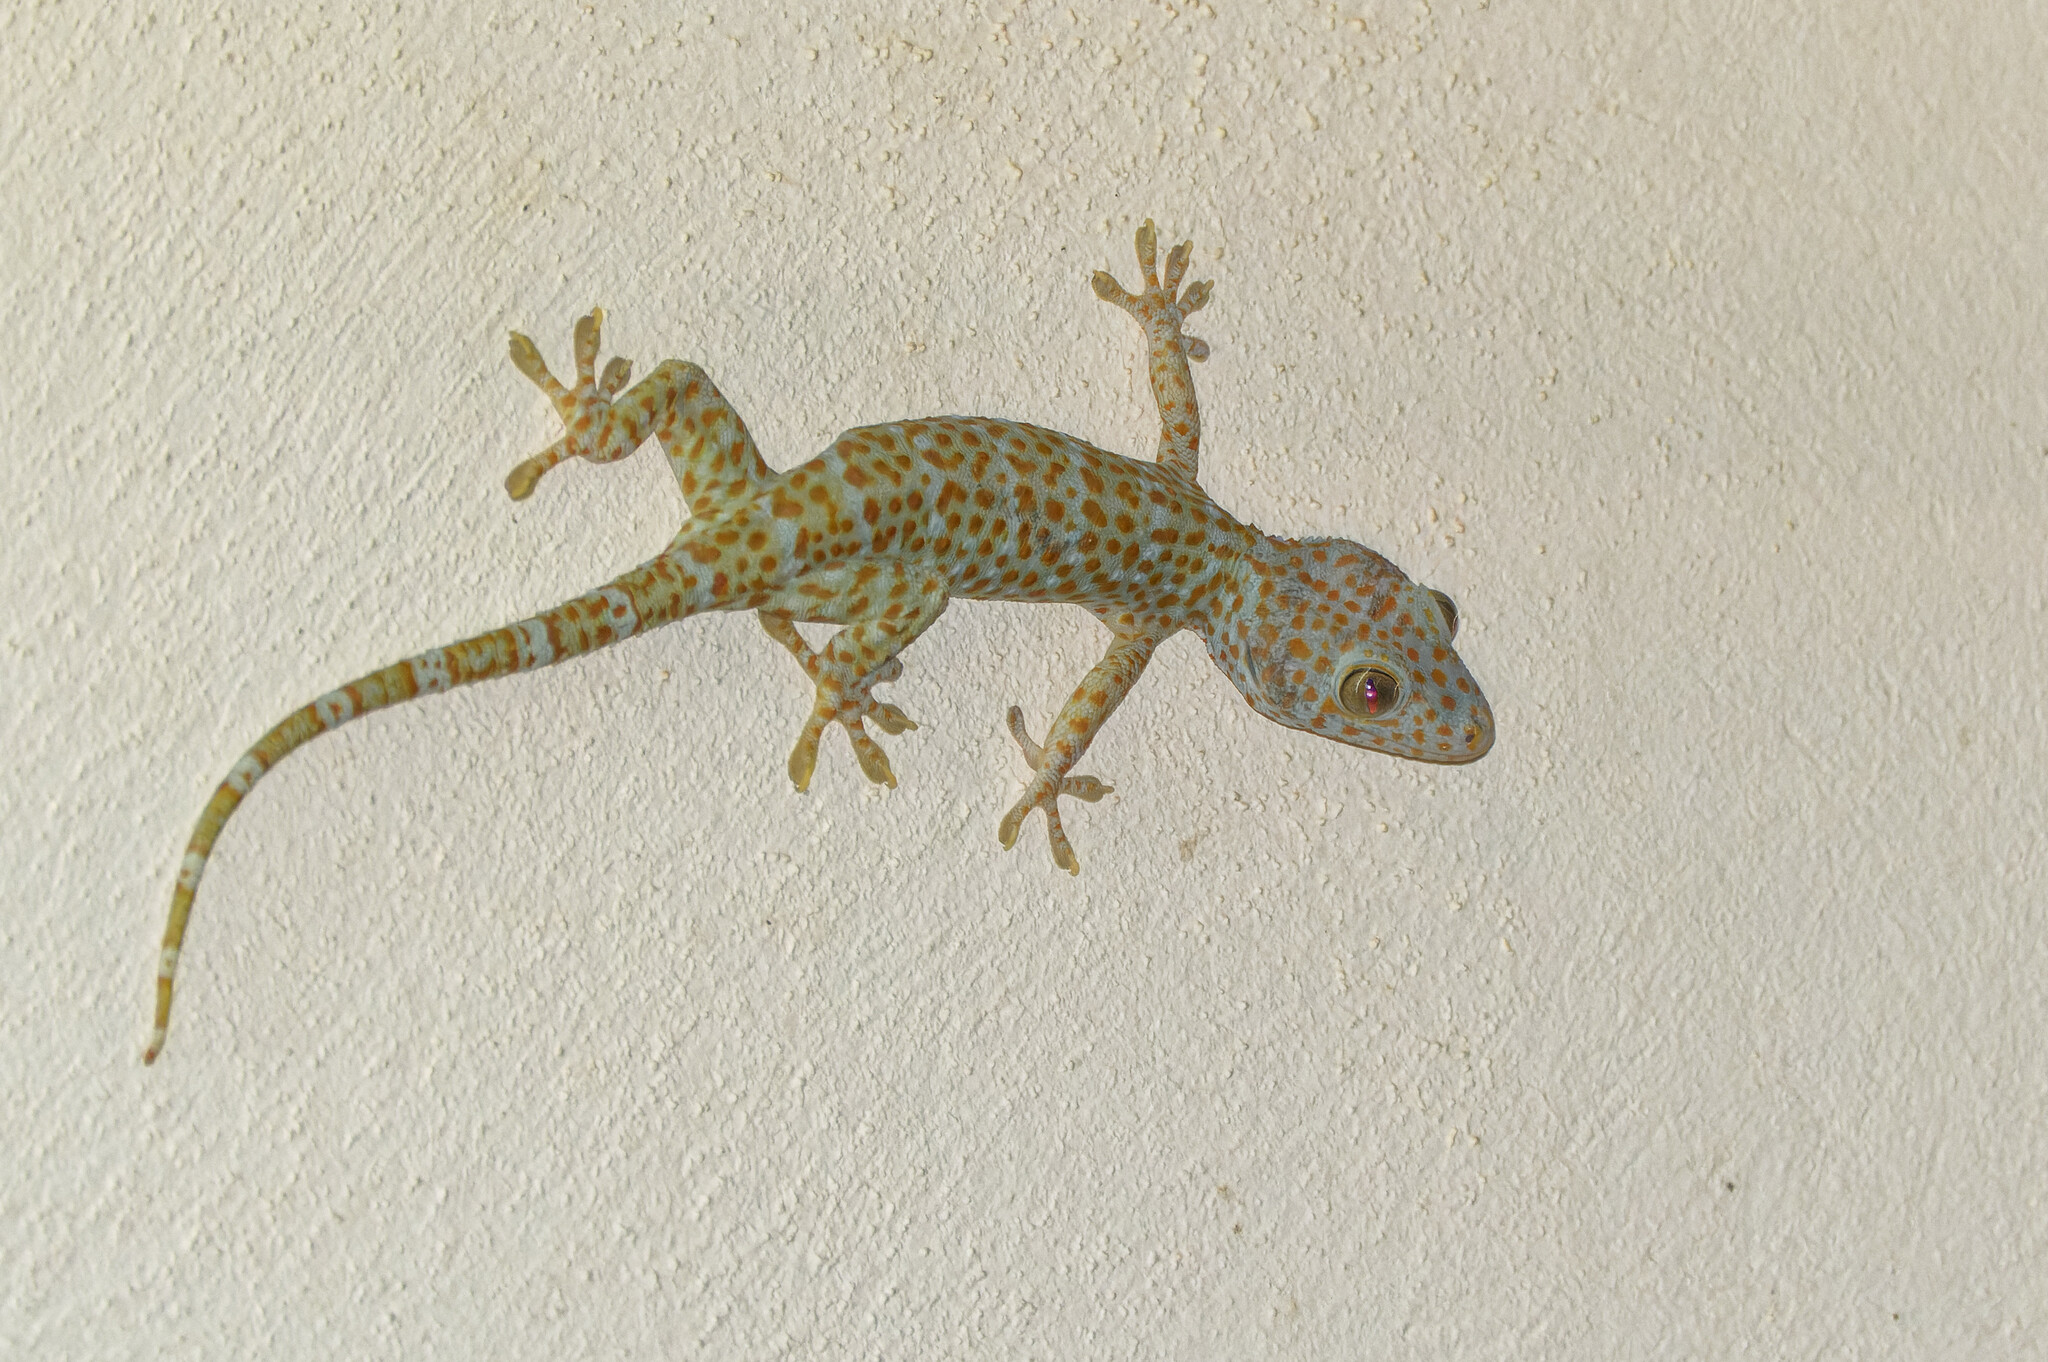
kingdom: Animalia
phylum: Chordata
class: Squamata
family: Gekkonidae
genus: Gekko
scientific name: Gekko gecko
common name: Tokay gecko
